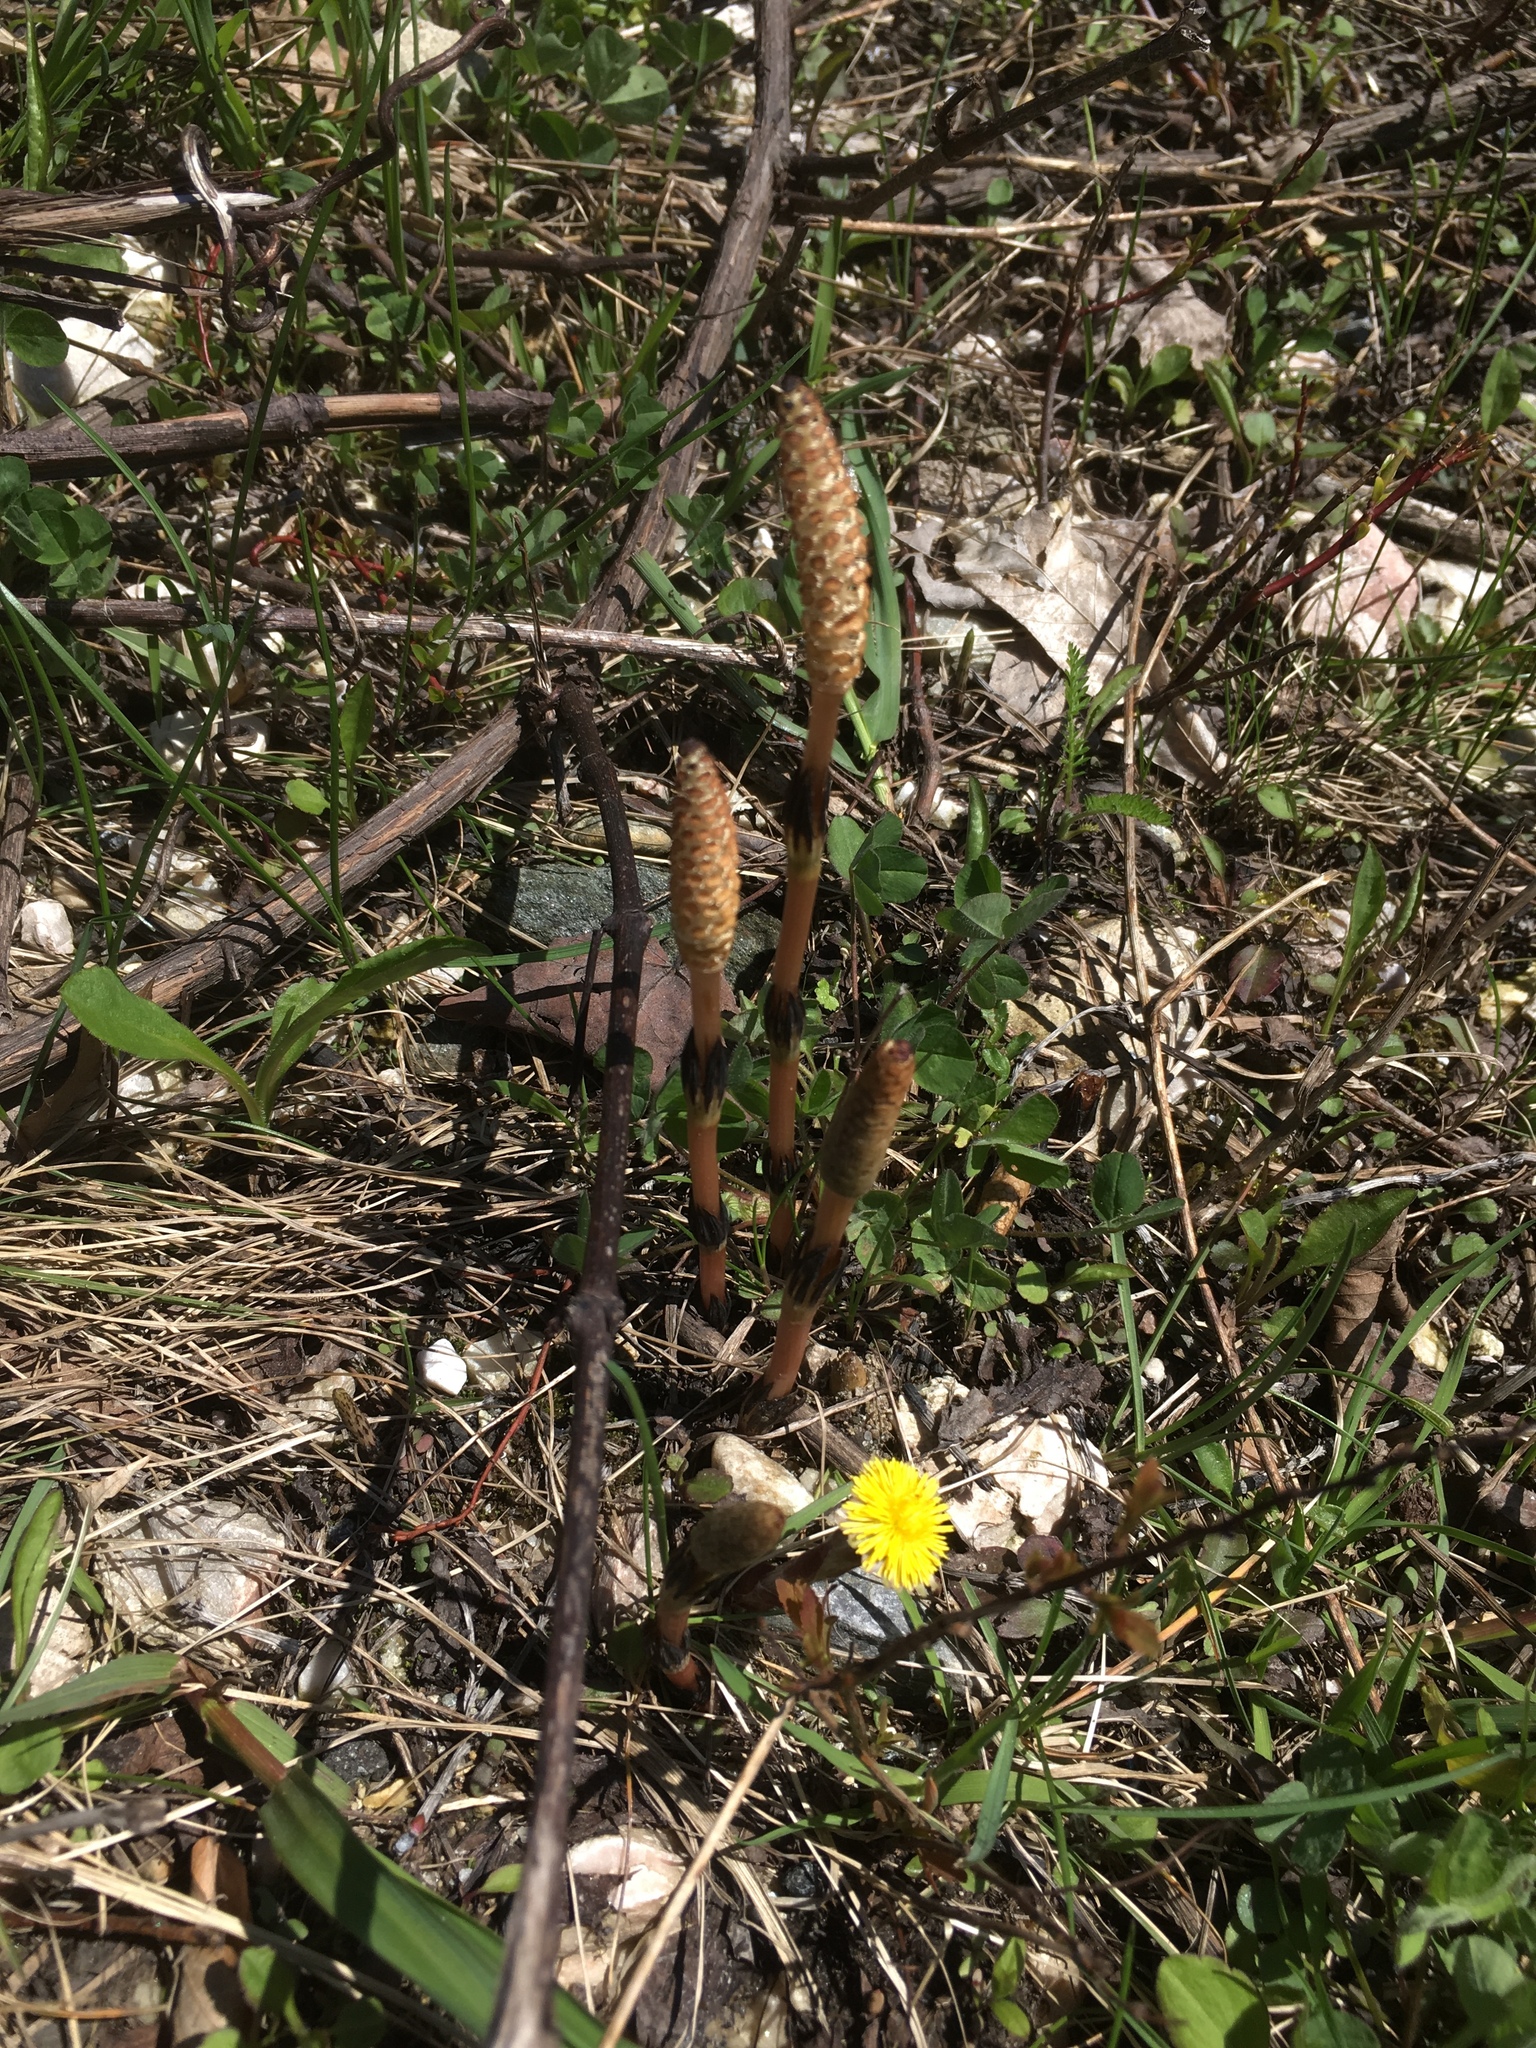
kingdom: Plantae
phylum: Tracheophyta
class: Polypodiopsida
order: Equisetales
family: Equisetaceae
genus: Equisetum
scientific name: Equisetum arvense
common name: Field horsetail
